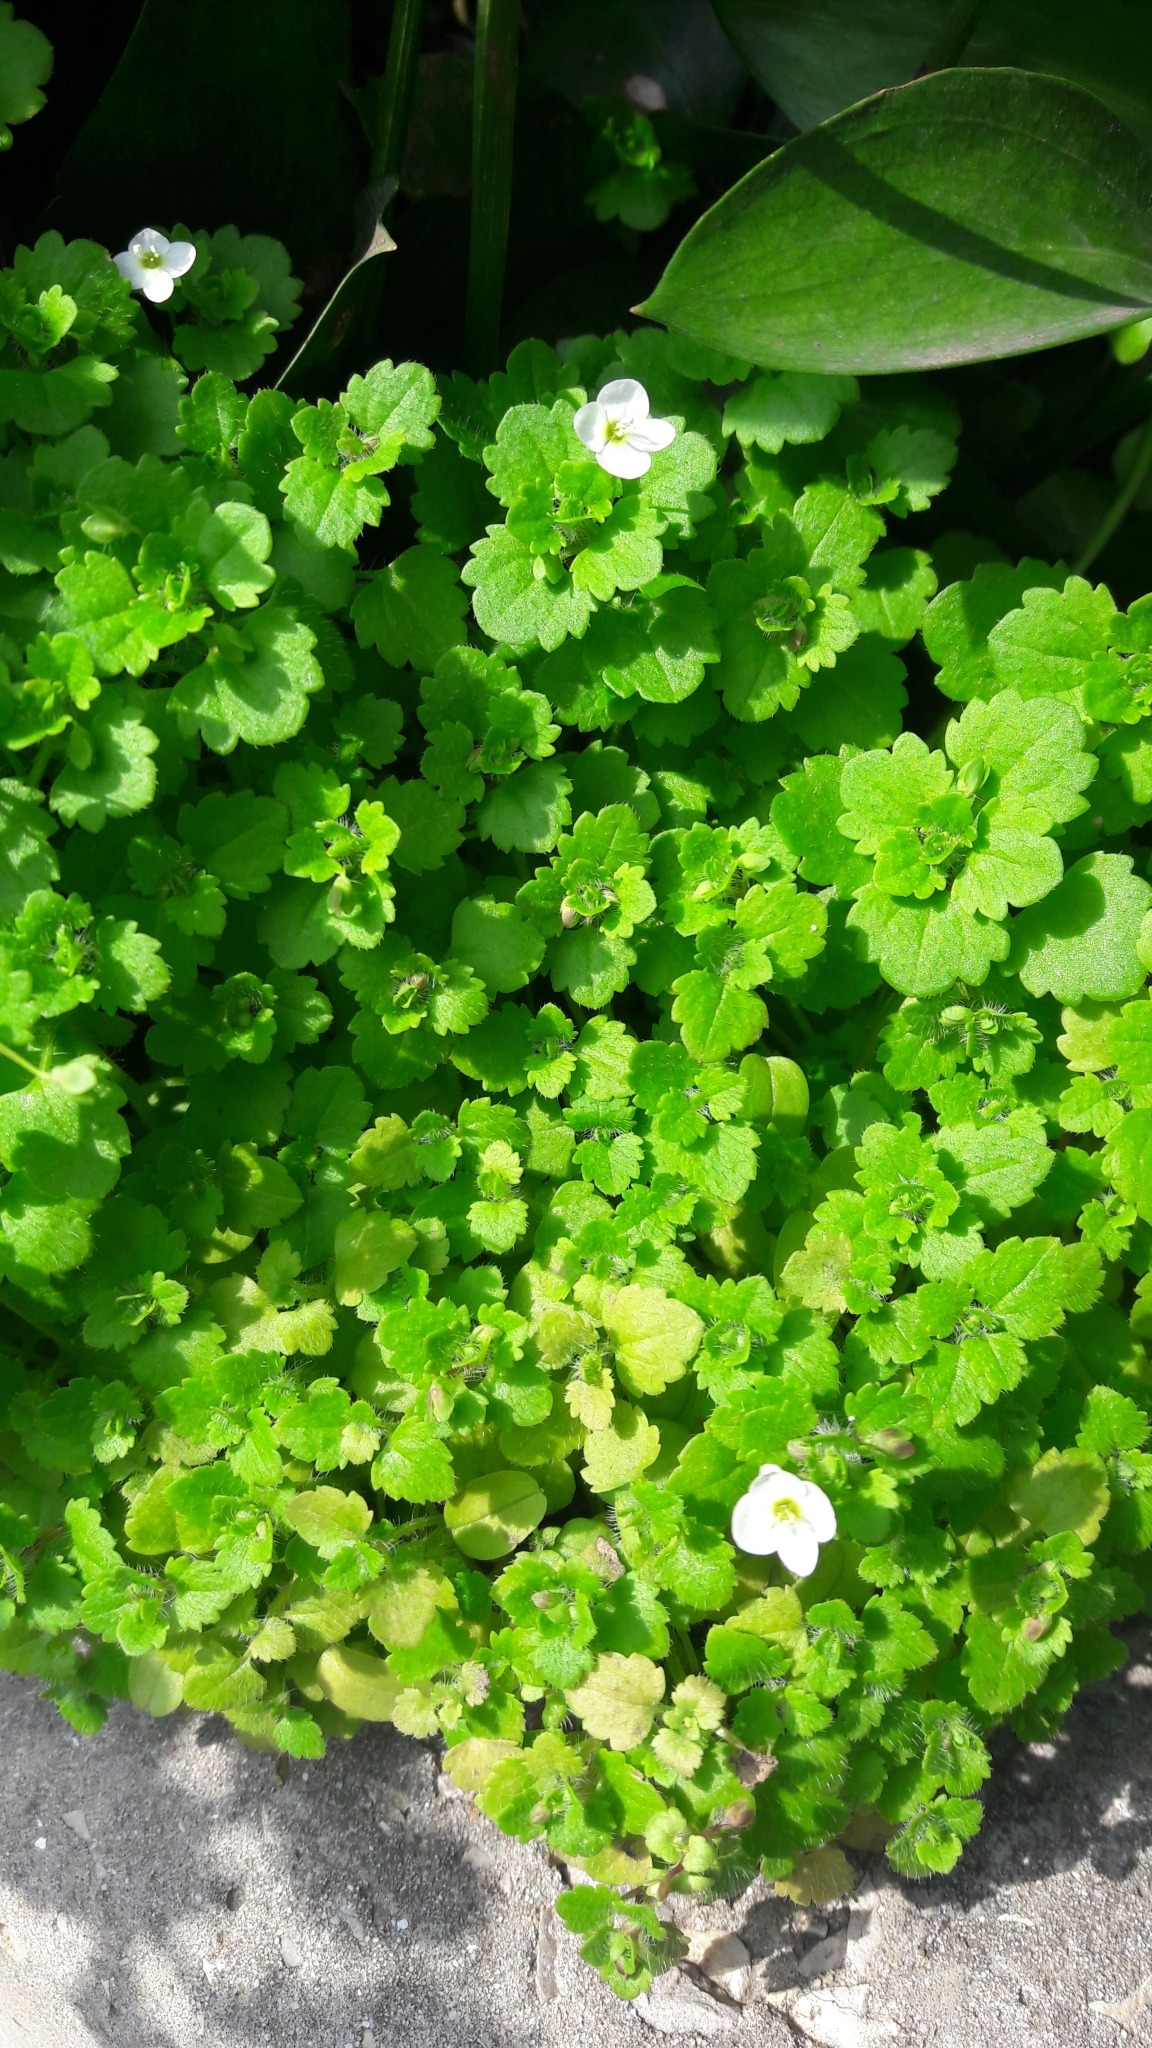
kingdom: Plantae
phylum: Tracheophyta
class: Magnoliopsida
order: Lamiales
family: Plantaginaceae
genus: Veronica
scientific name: Veronica cymbalaria
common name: Pale speedwell
